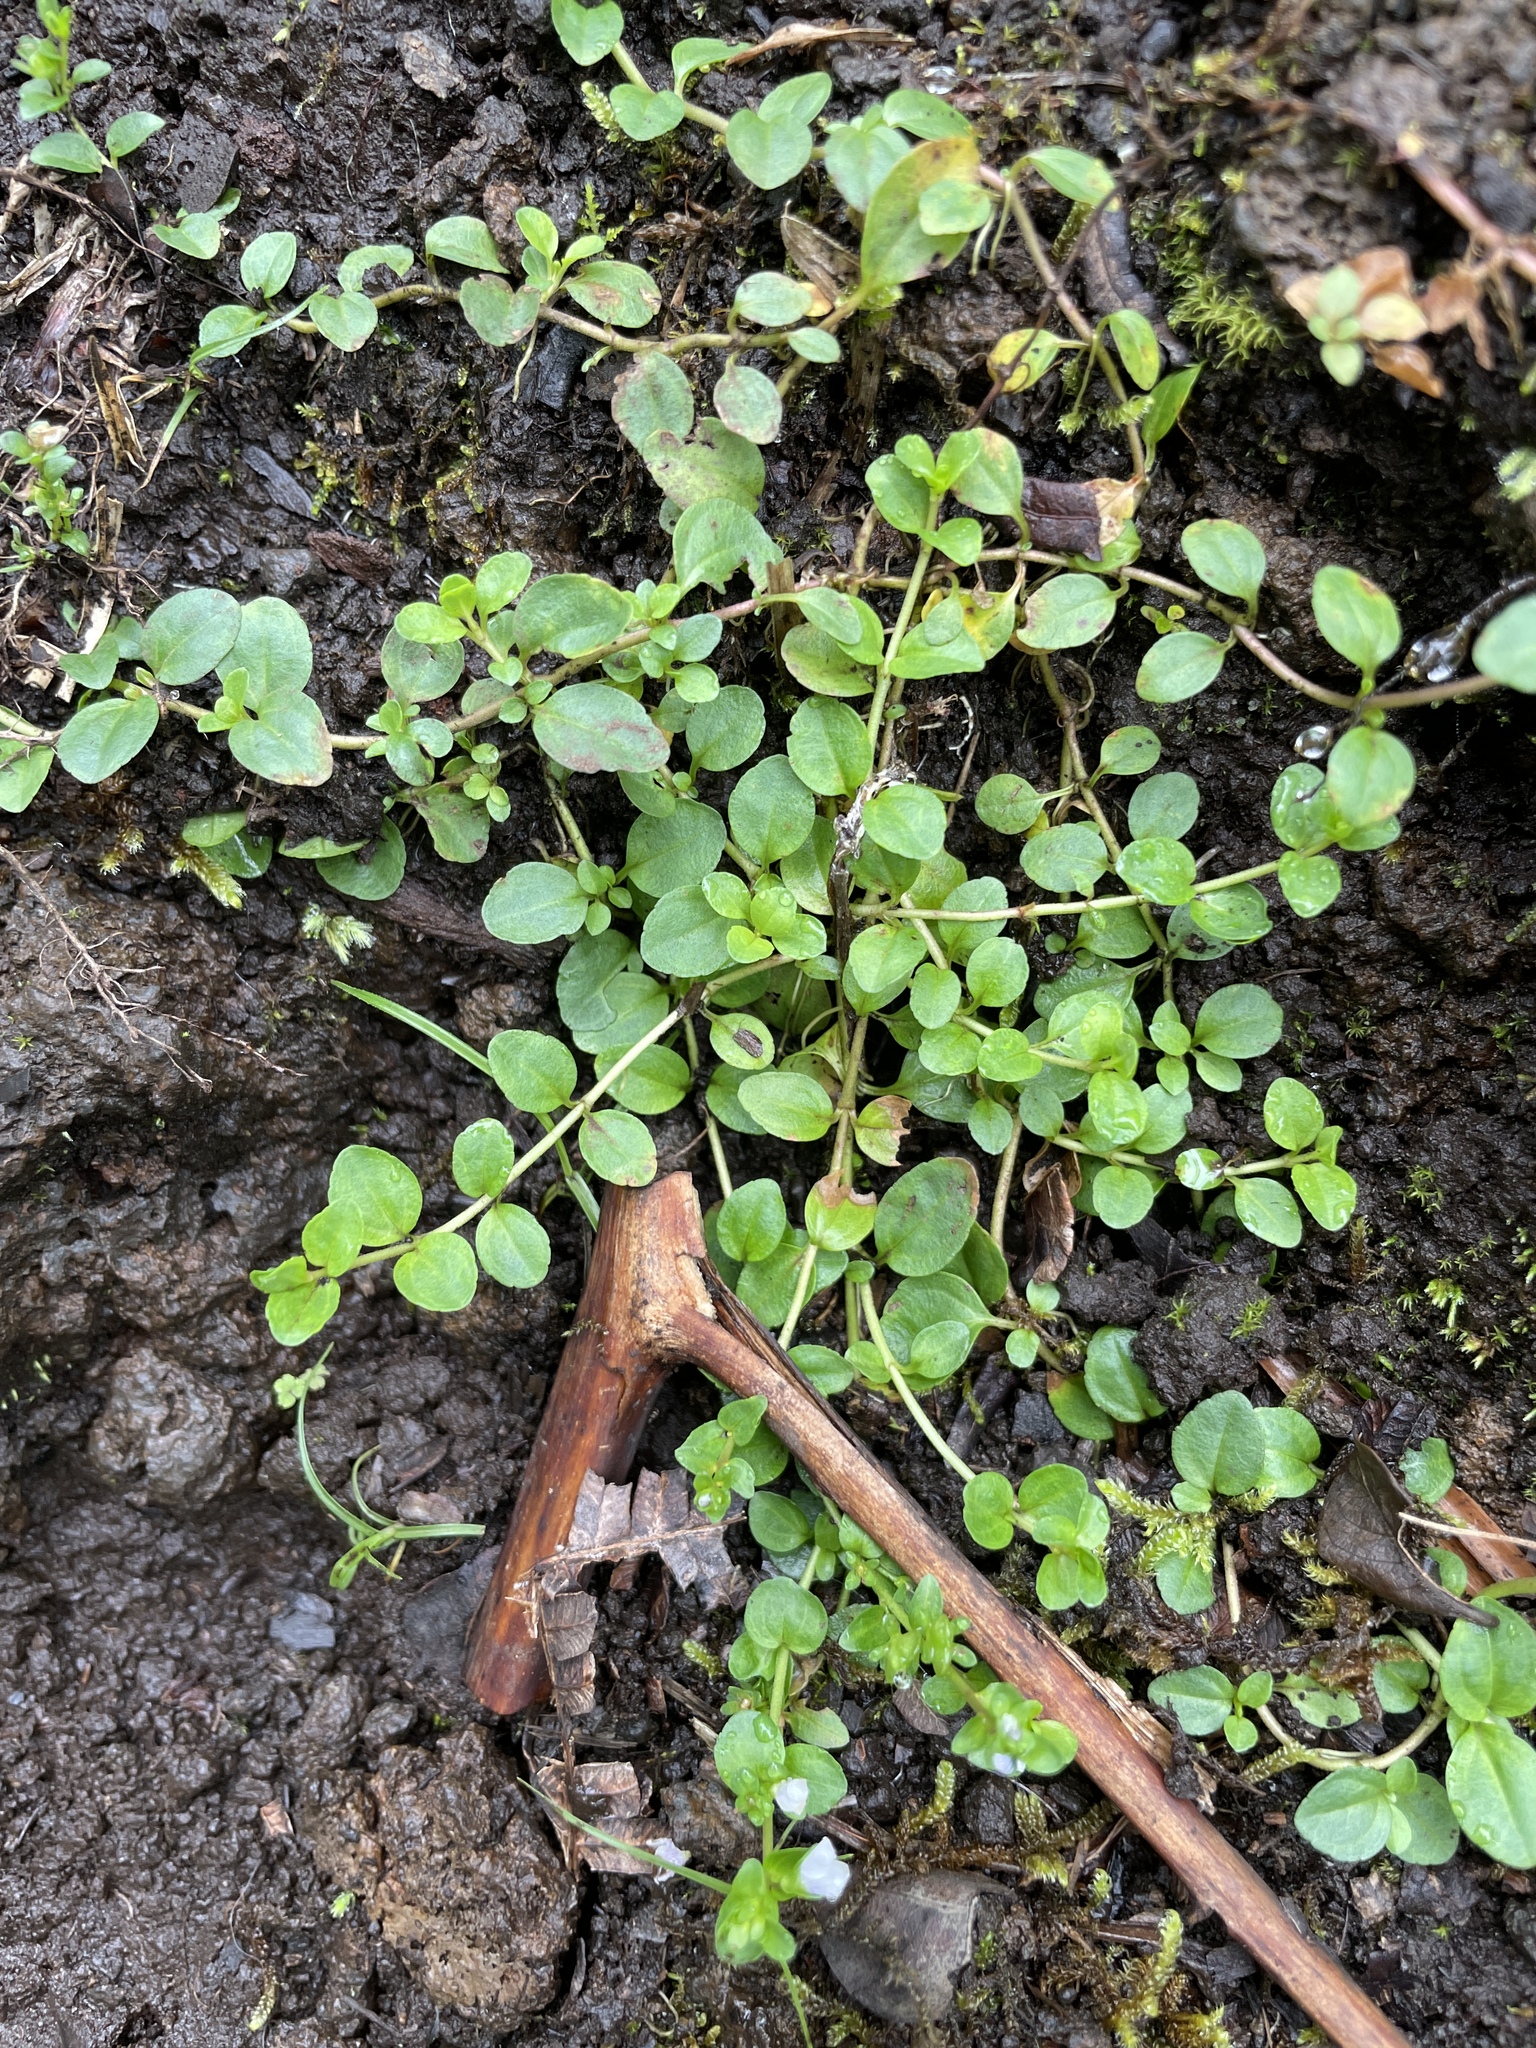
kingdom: Plantae
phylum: Tracheophyta
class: Magnoliopsida
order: Lamiales
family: Plantaginaceae
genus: Veronica
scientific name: Veronica serpyllifolia
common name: Thyme-leaved speedwell
